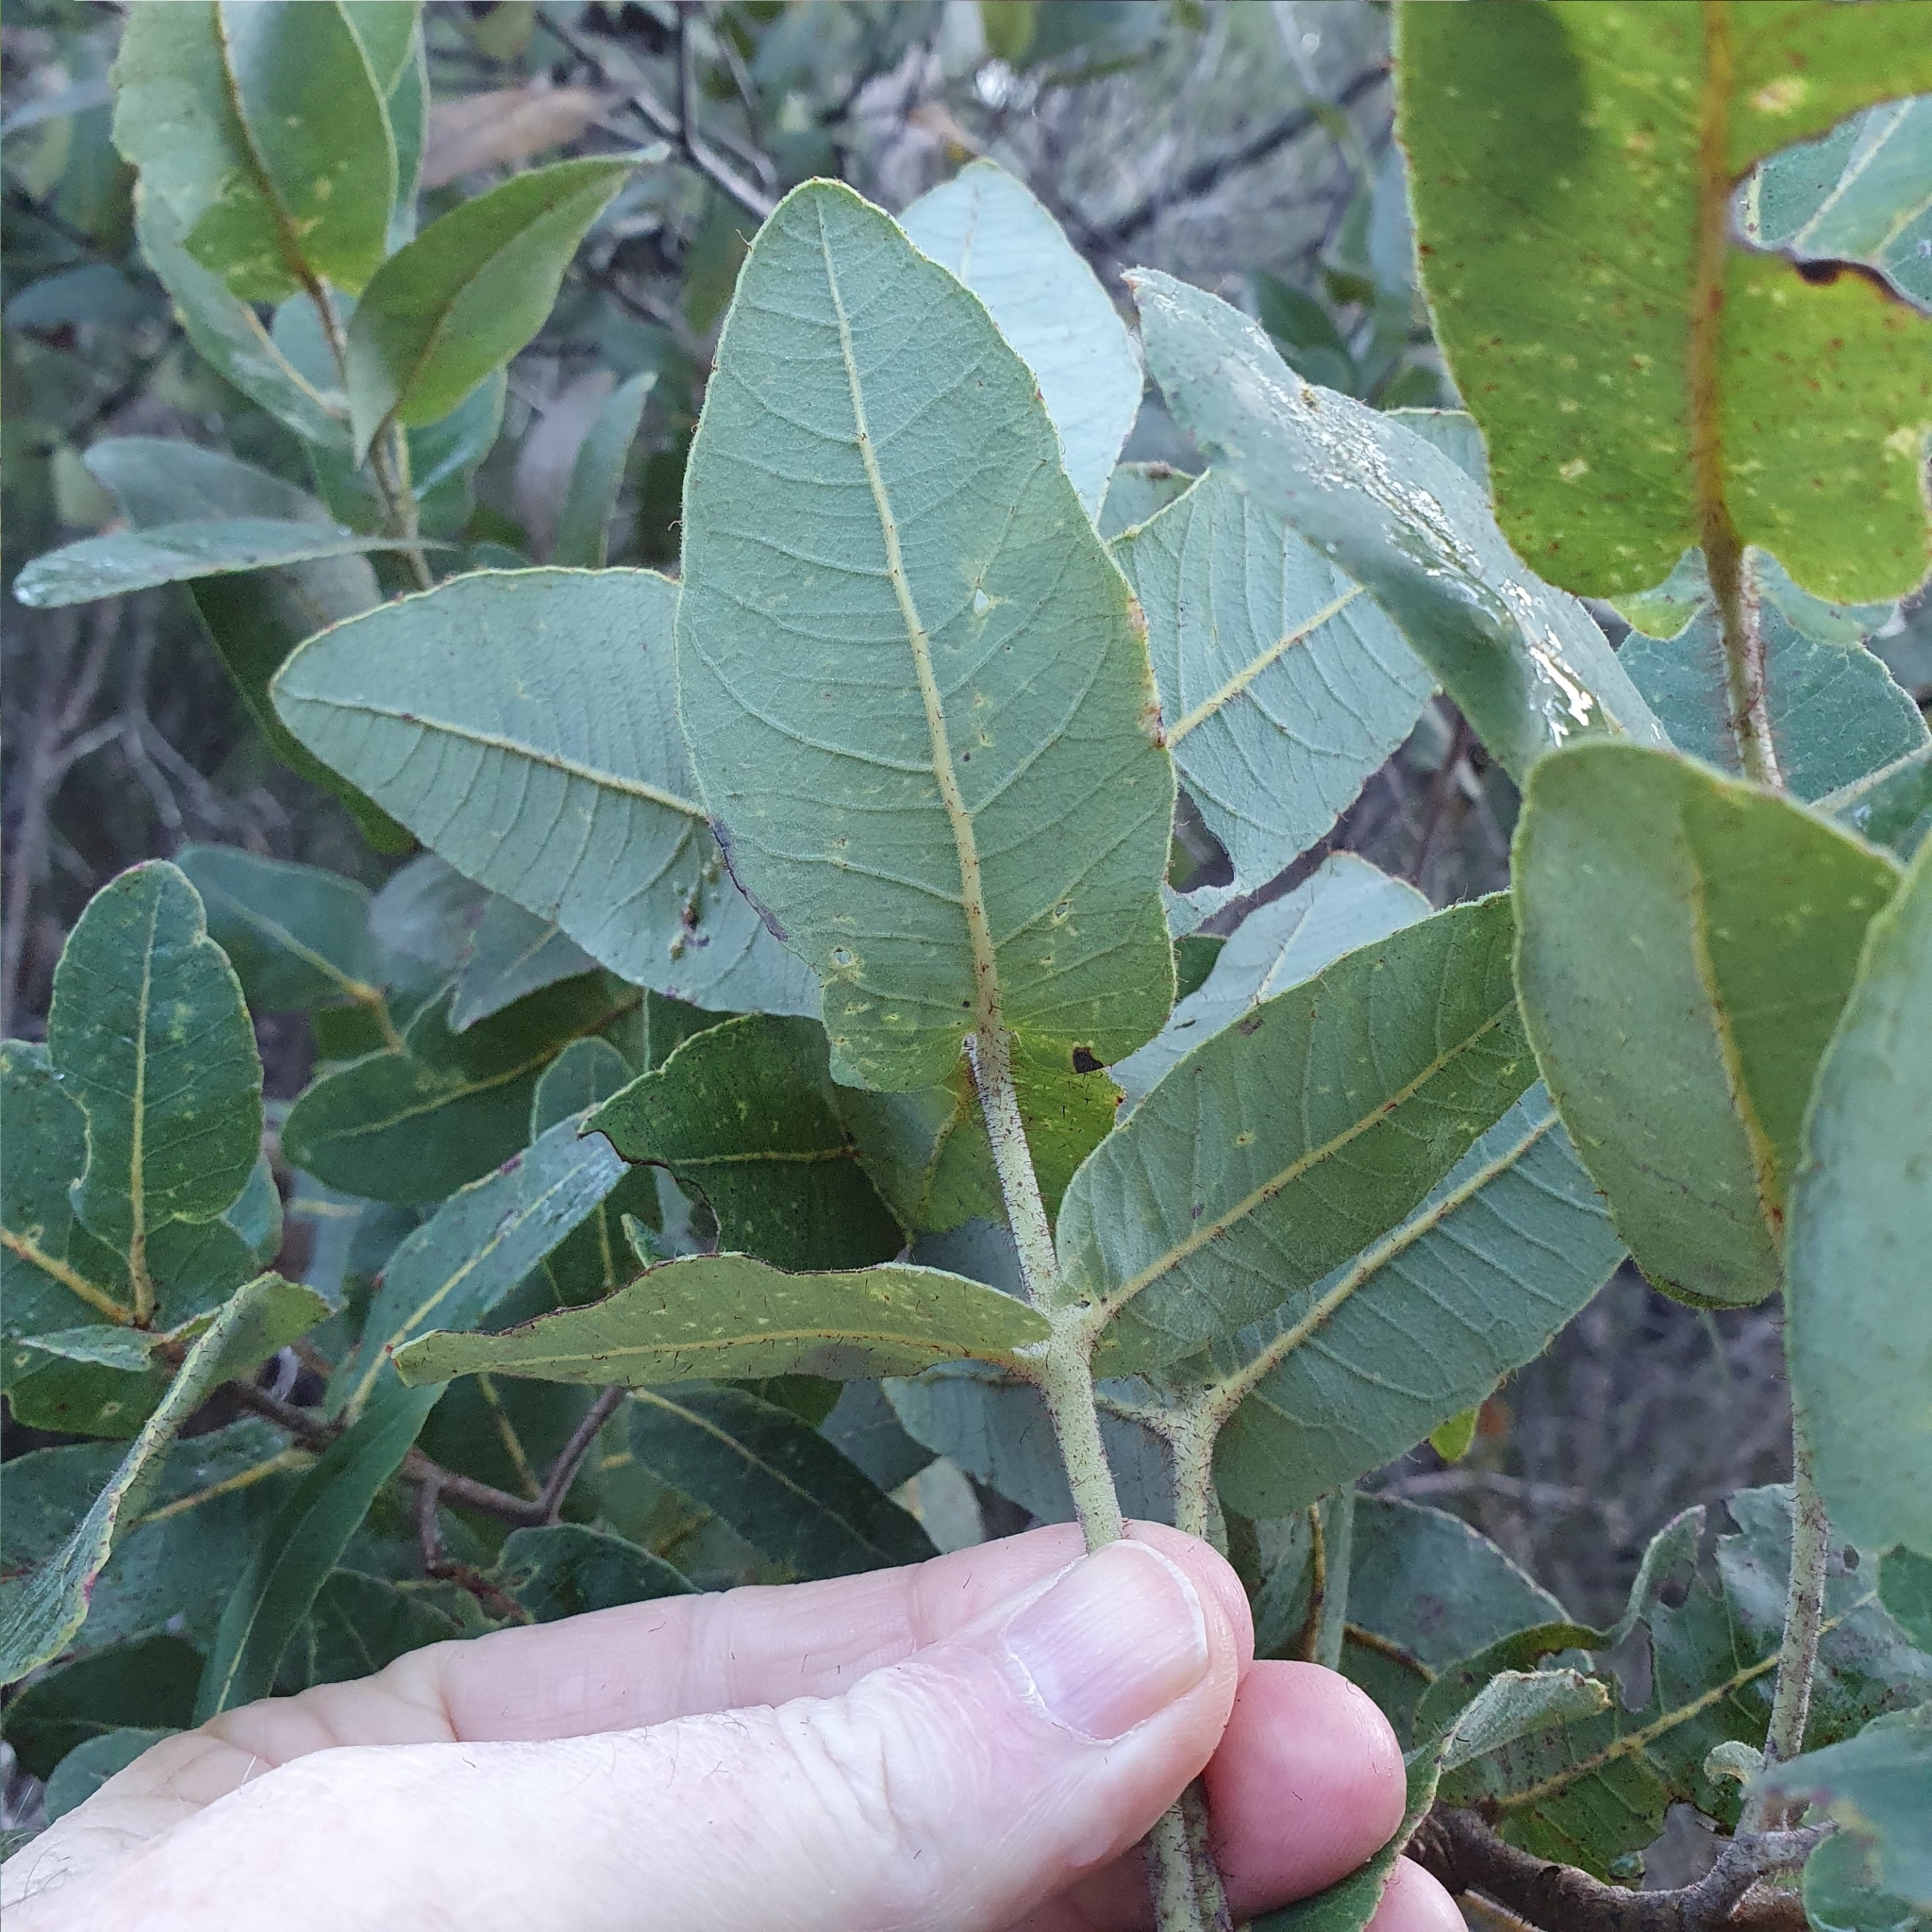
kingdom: Plantae
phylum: Tracheophyta
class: Magnoliopsida
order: Myrtales
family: Myrtaceae
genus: Angophora
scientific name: Angophora hispida
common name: Dwarf-apple
